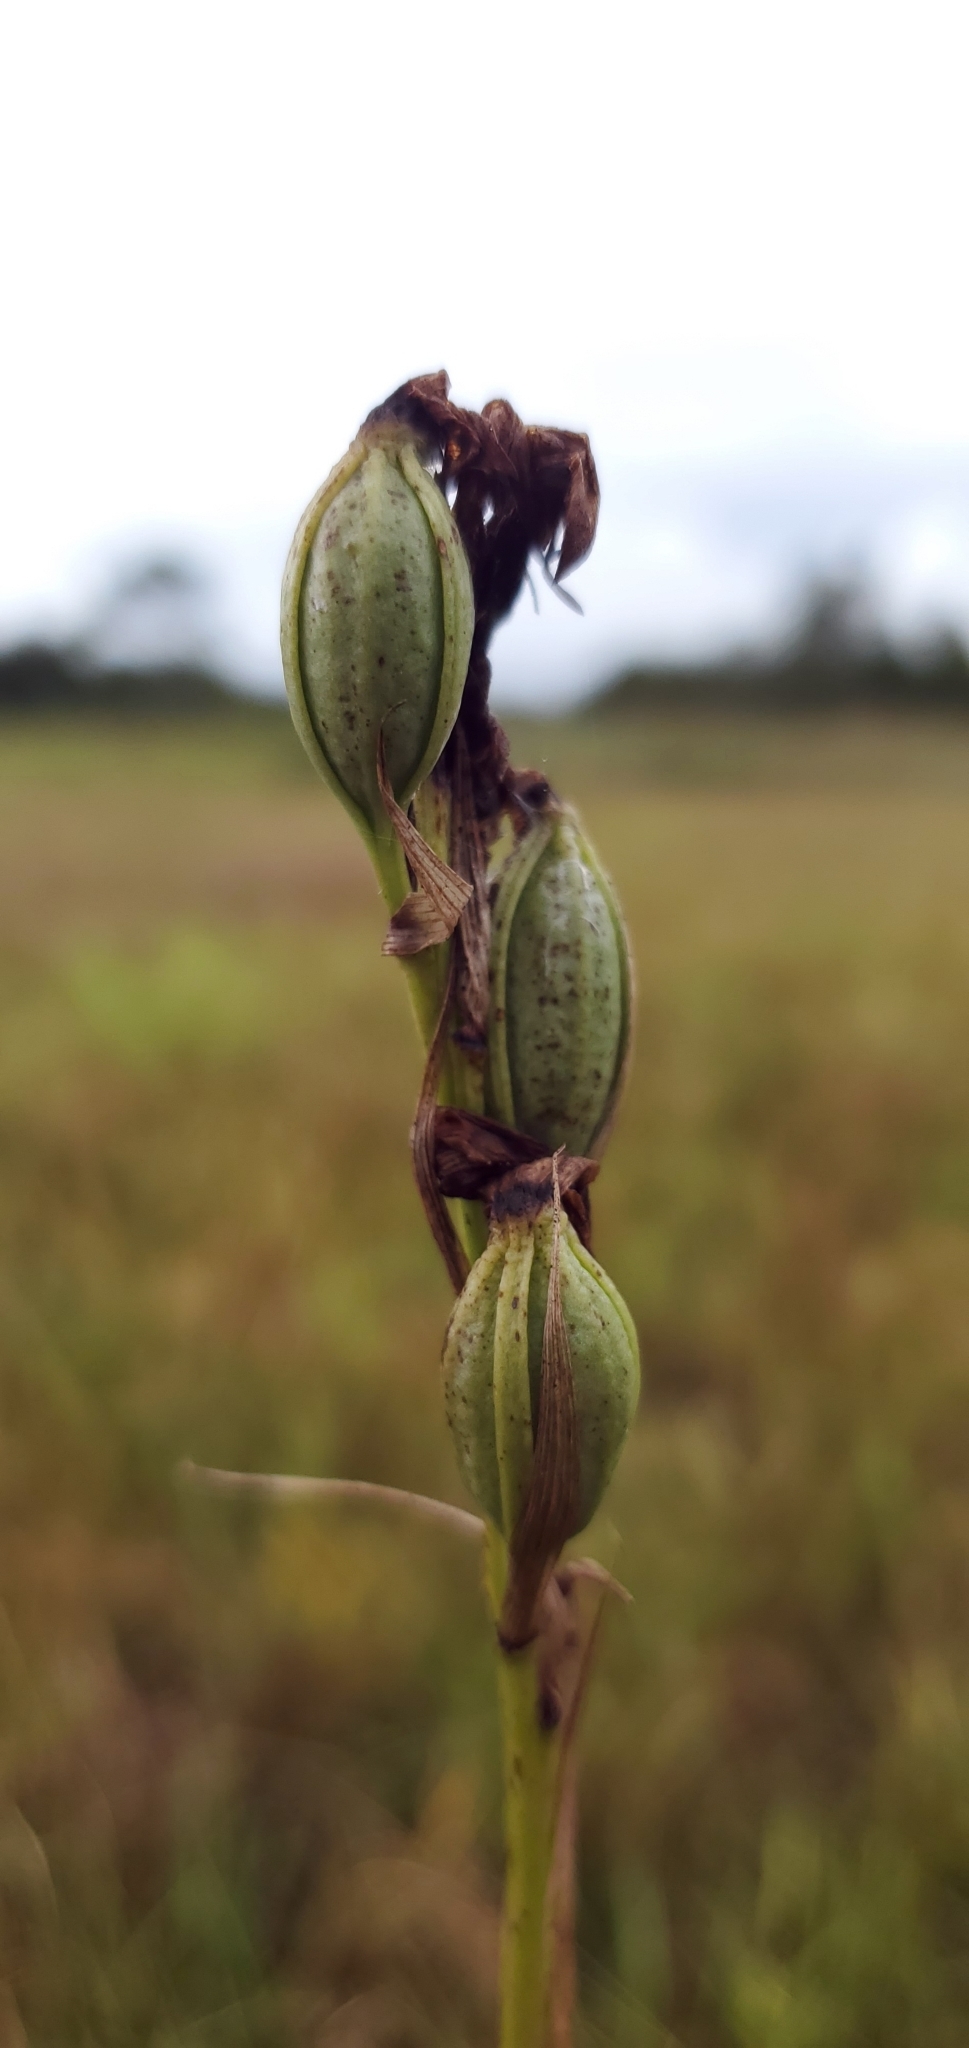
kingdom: Plantae
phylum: Tracheophyta
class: Liliopsida
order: Asparagales
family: Orchidaceae
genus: Eulophia
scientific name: Eulophia ecristata
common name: Giant orchid
